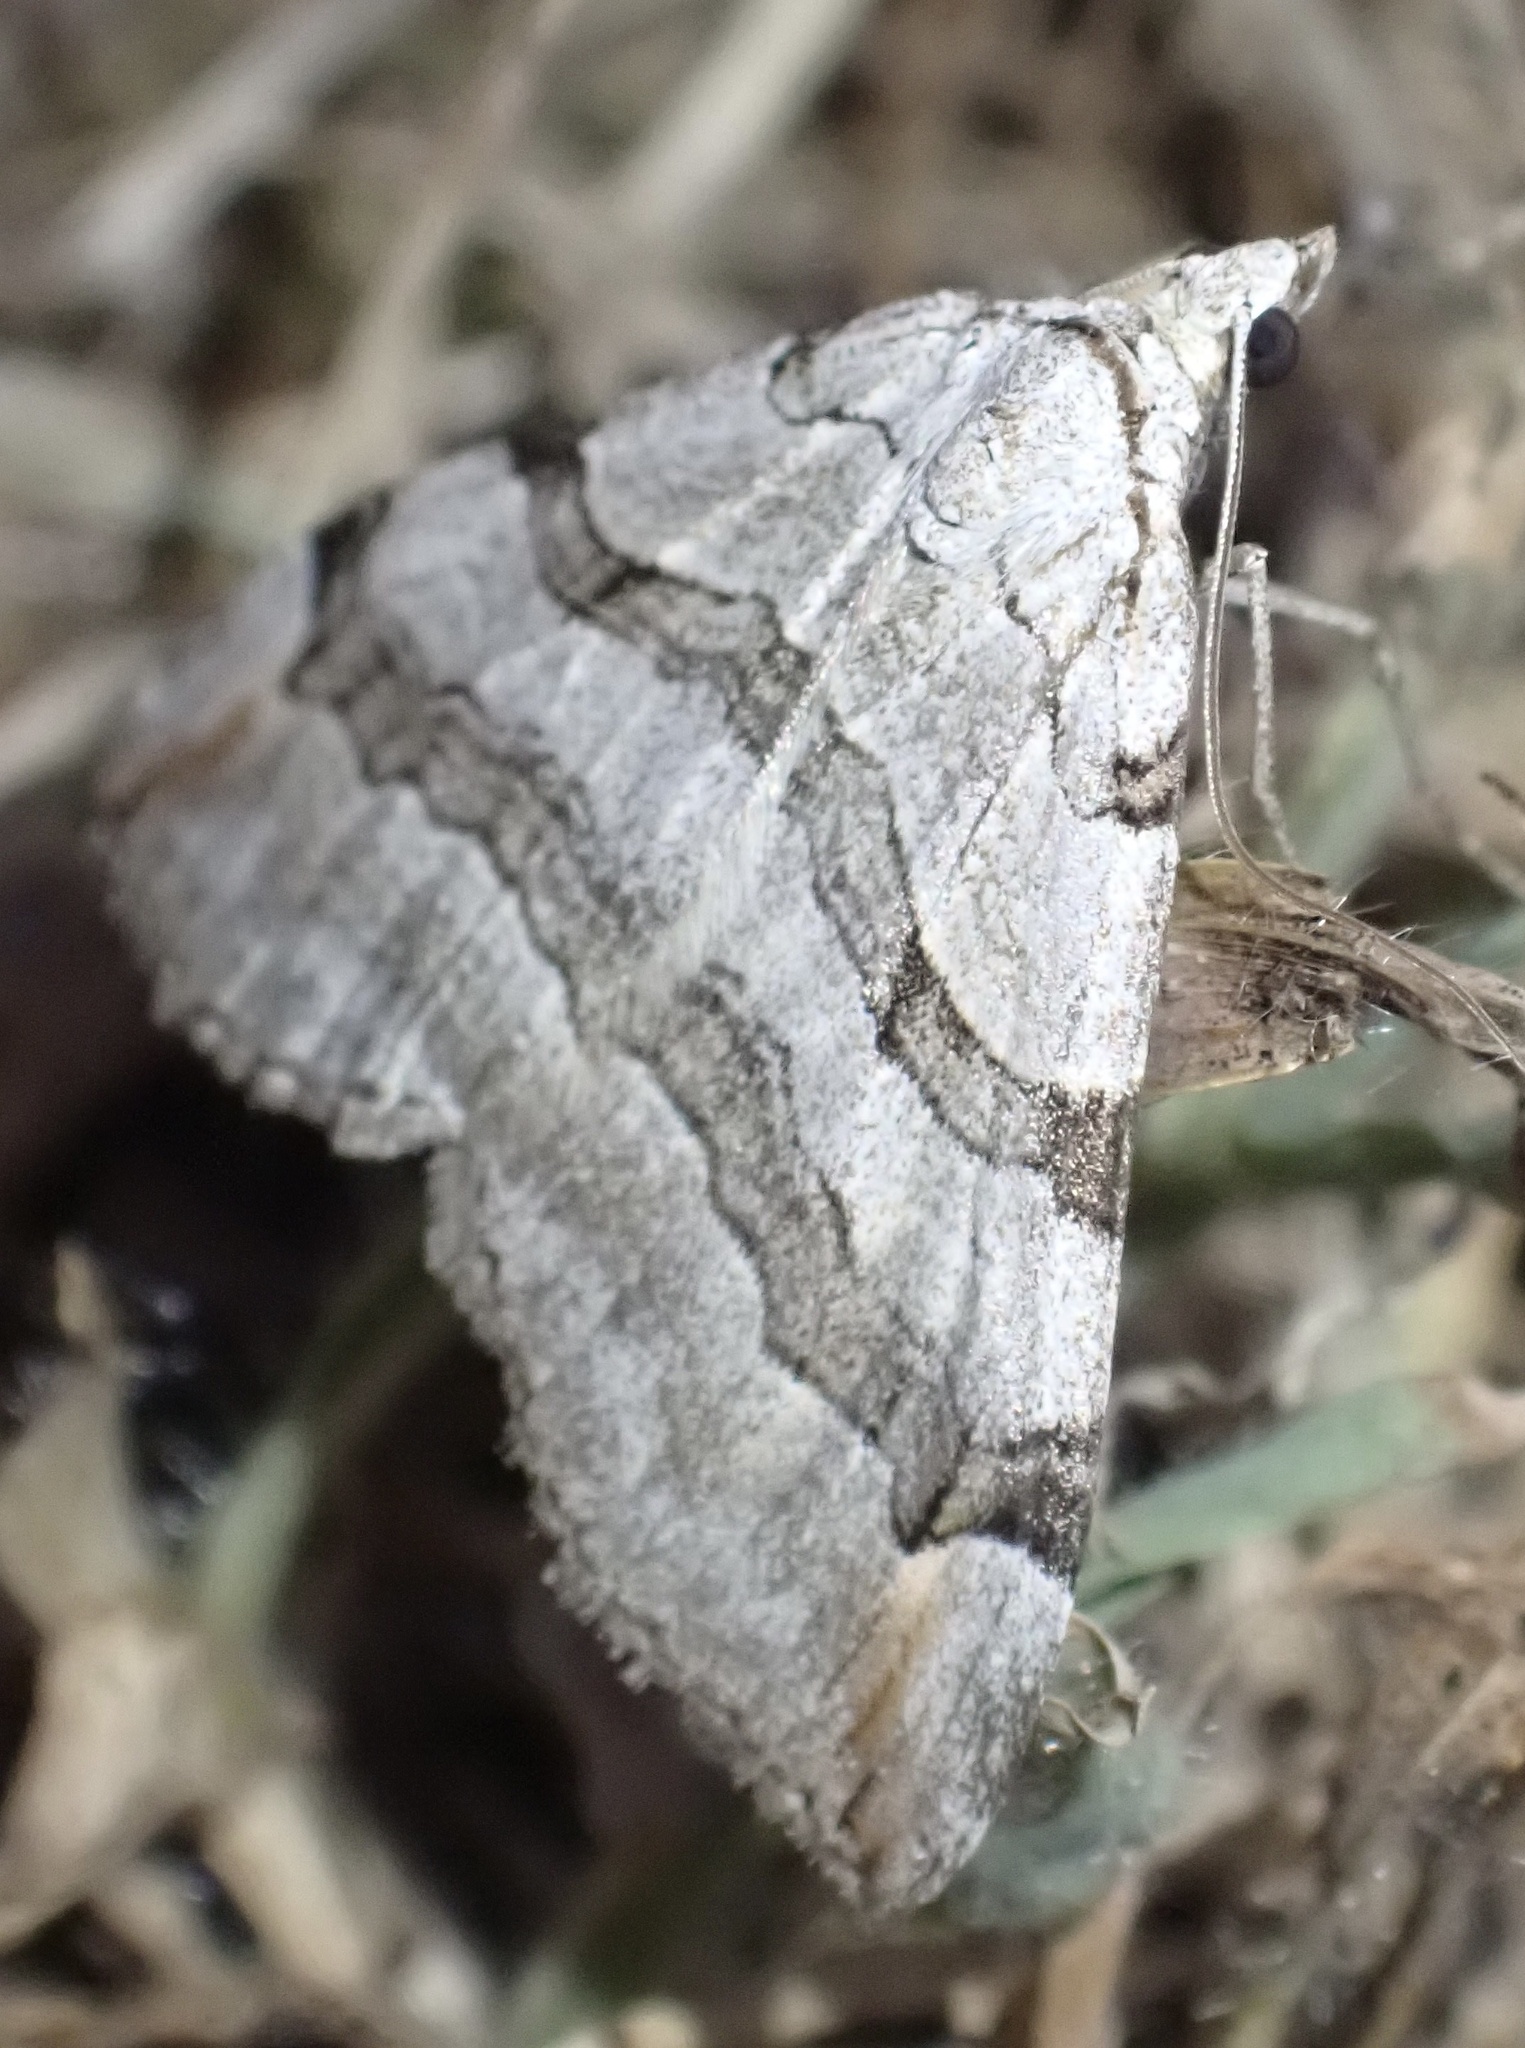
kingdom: Animalia
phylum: Arthropoda
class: Insecta
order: Lepidoptera
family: Geometridae
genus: Aplocera
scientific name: Aplocera plagiata
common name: Treble-bar
